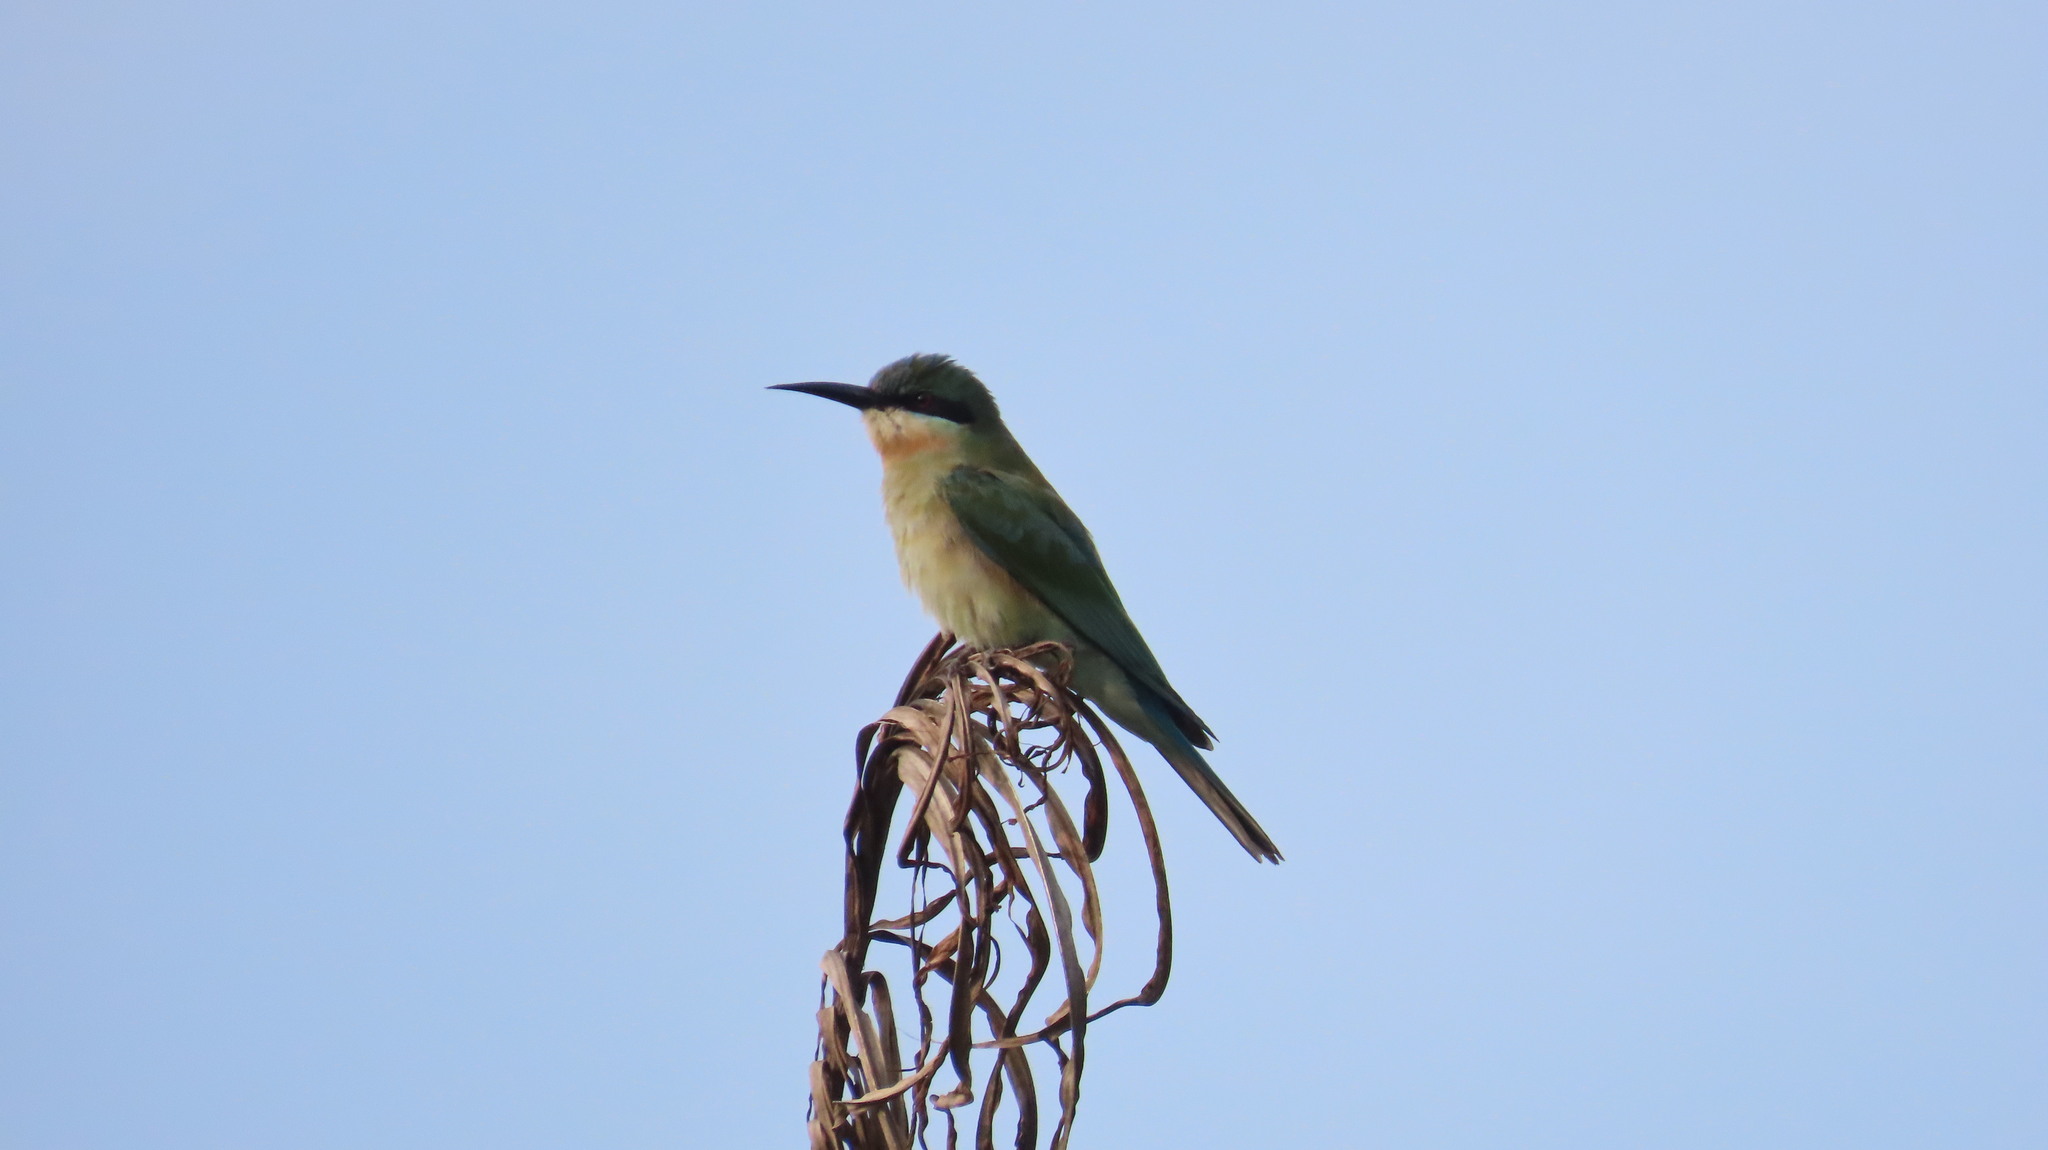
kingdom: Animalia
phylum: Chordata
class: Aves
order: Coraciiformes
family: Meropidae
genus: Merops
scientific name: Merops philippinus
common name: Blue-tailed bee-eater
